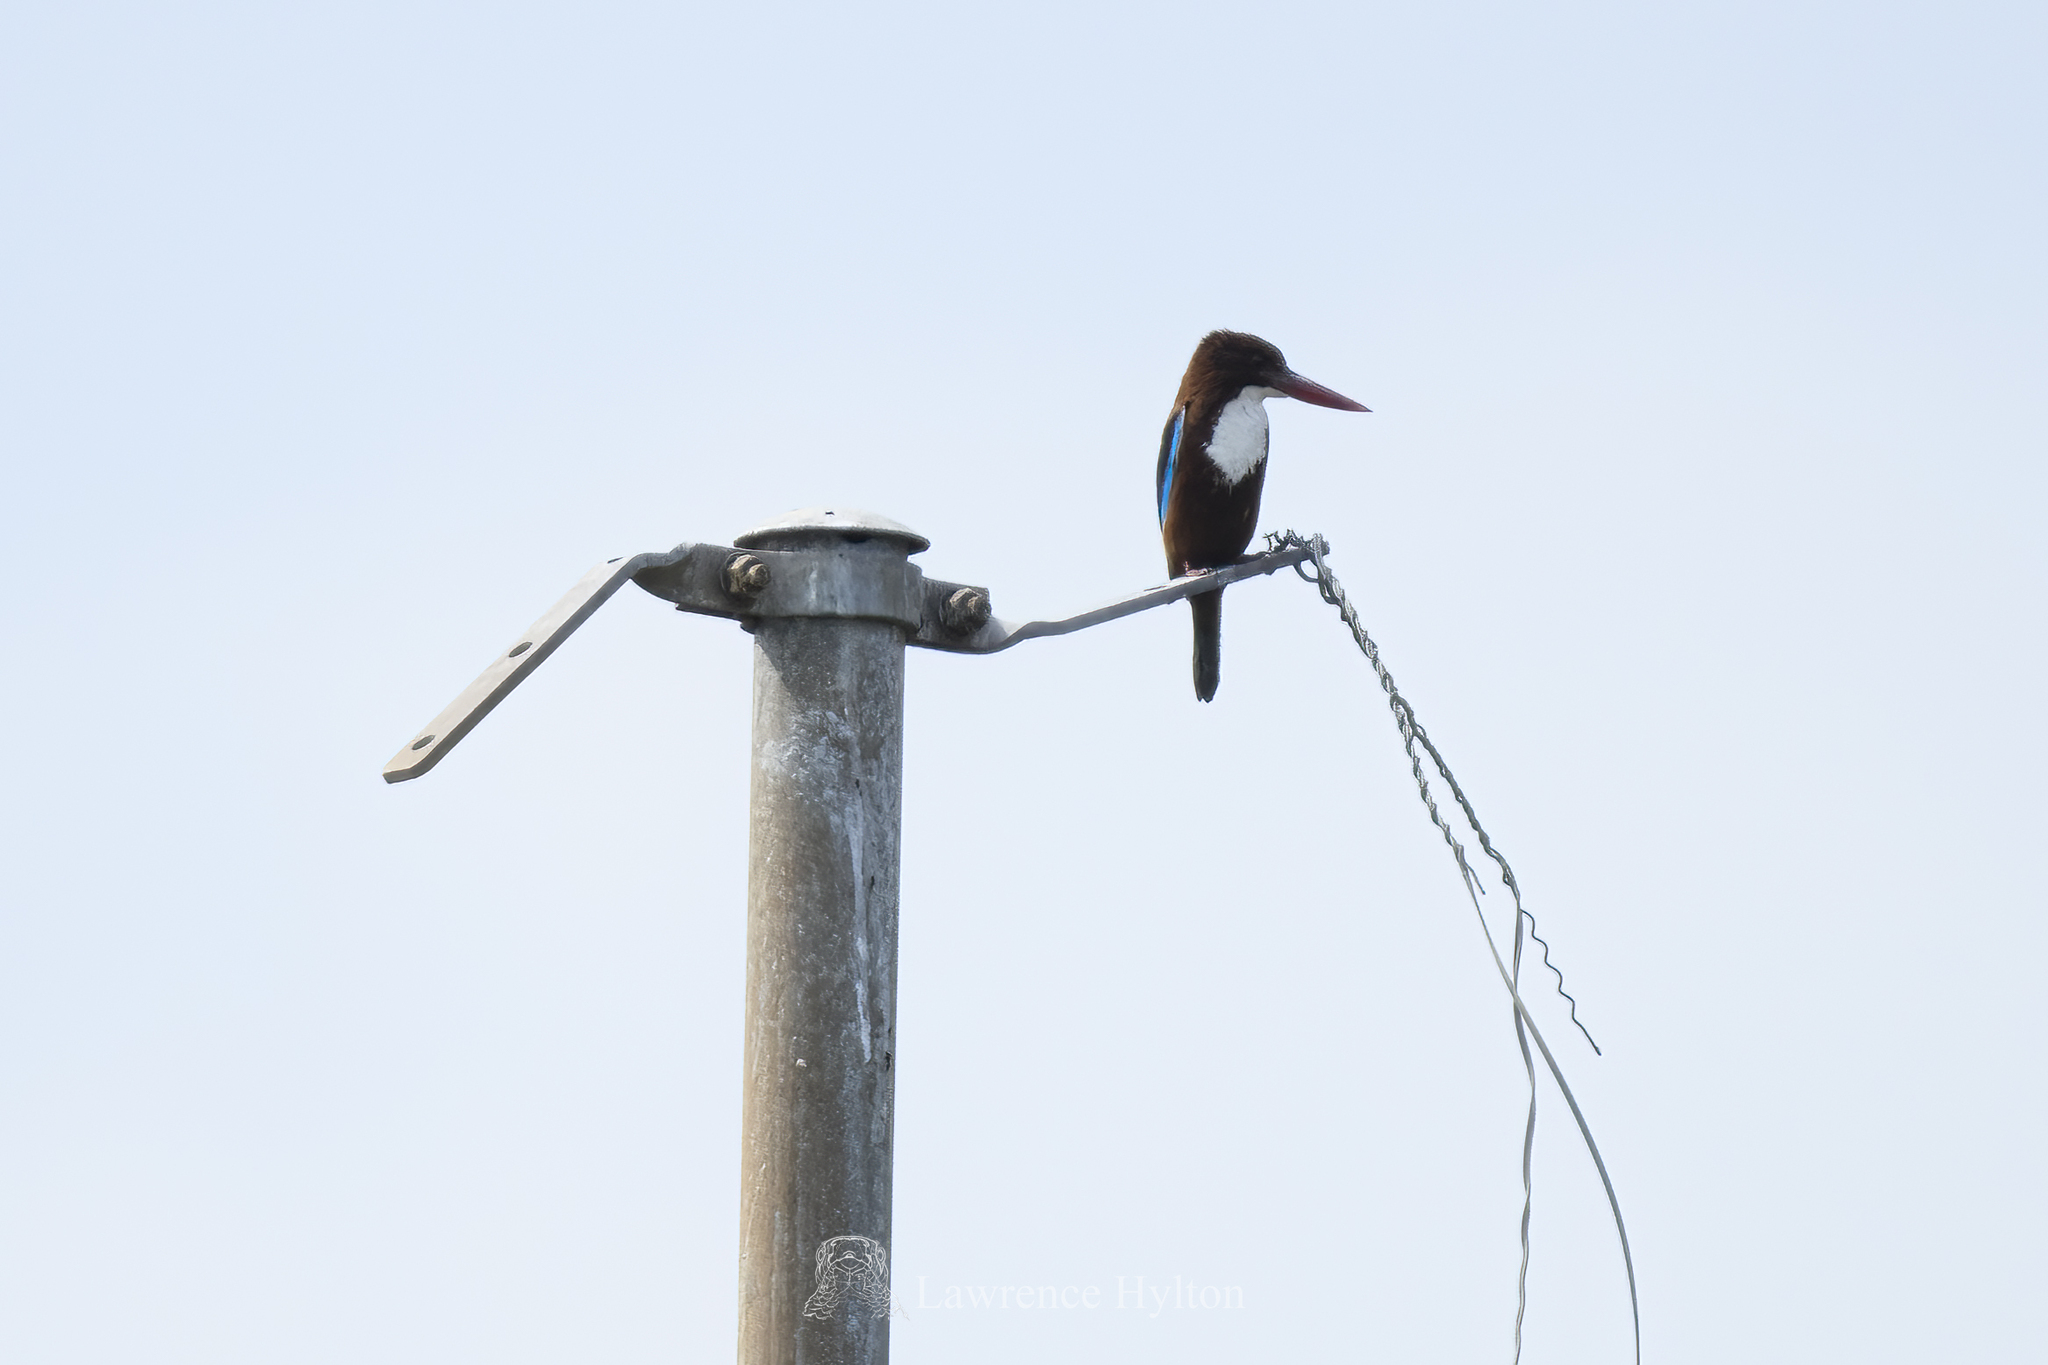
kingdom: Animalia
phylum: Chordata
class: Aves
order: Coraciiformes
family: Alcedinidae
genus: Halcyon
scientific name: Halcyon smyrnensis
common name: White-throated kingfisher
